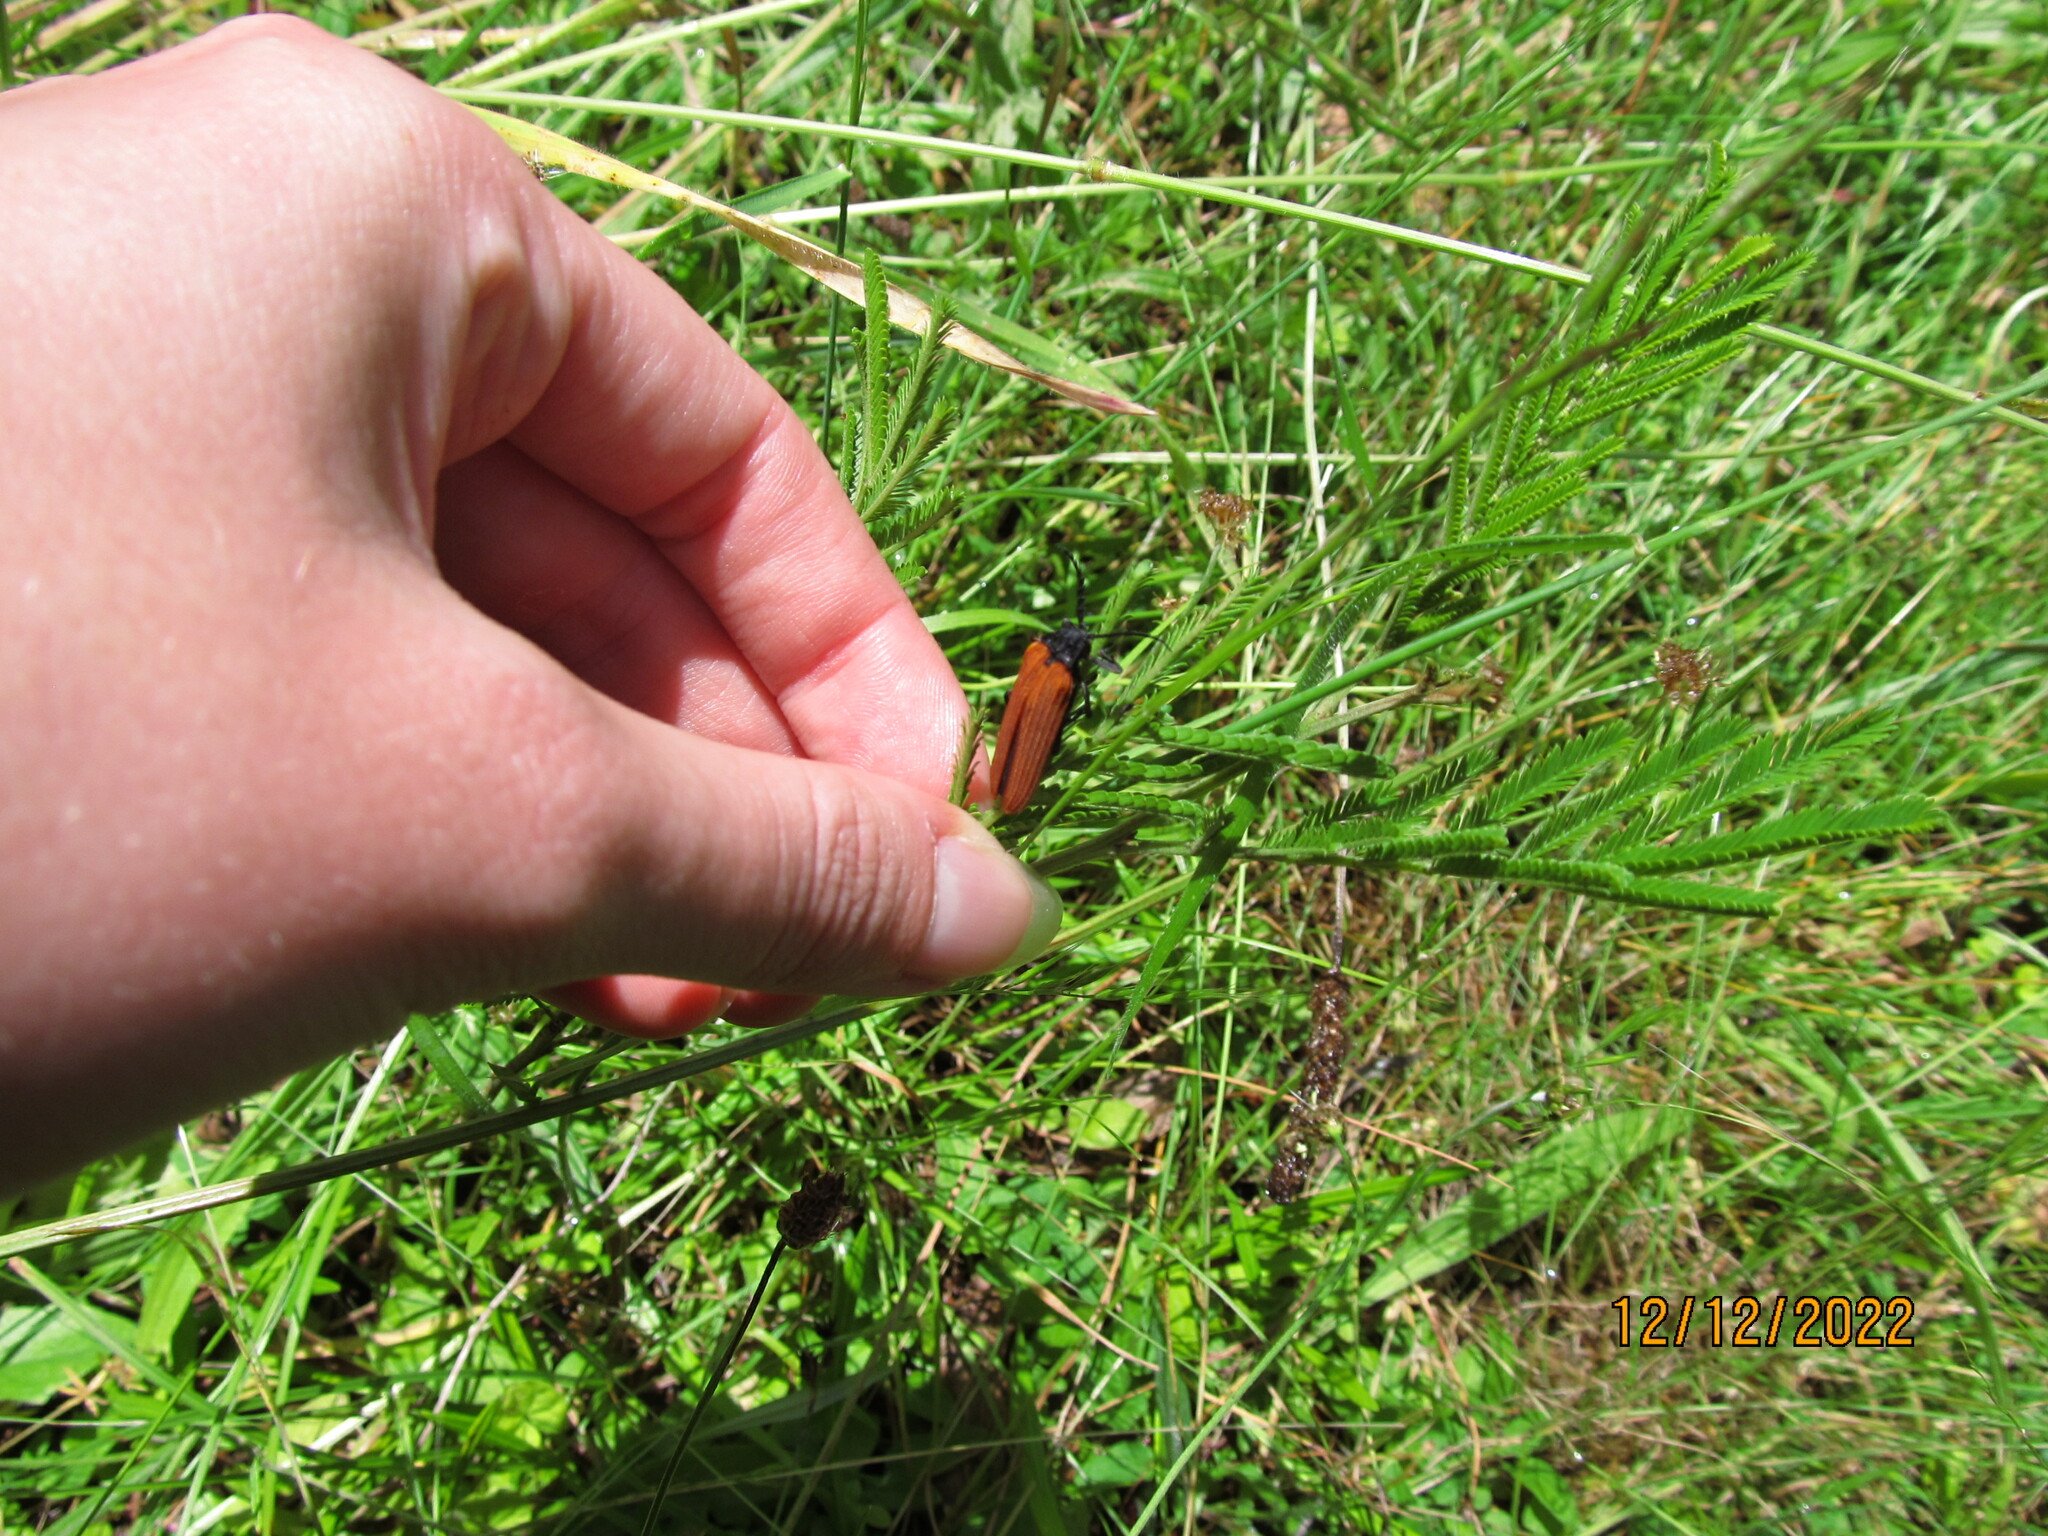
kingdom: Animalia
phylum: Arthropoda
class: Insecta
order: Coleoptera
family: Lycidae
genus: Porrostoma
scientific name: Porrostoma rhipidium
